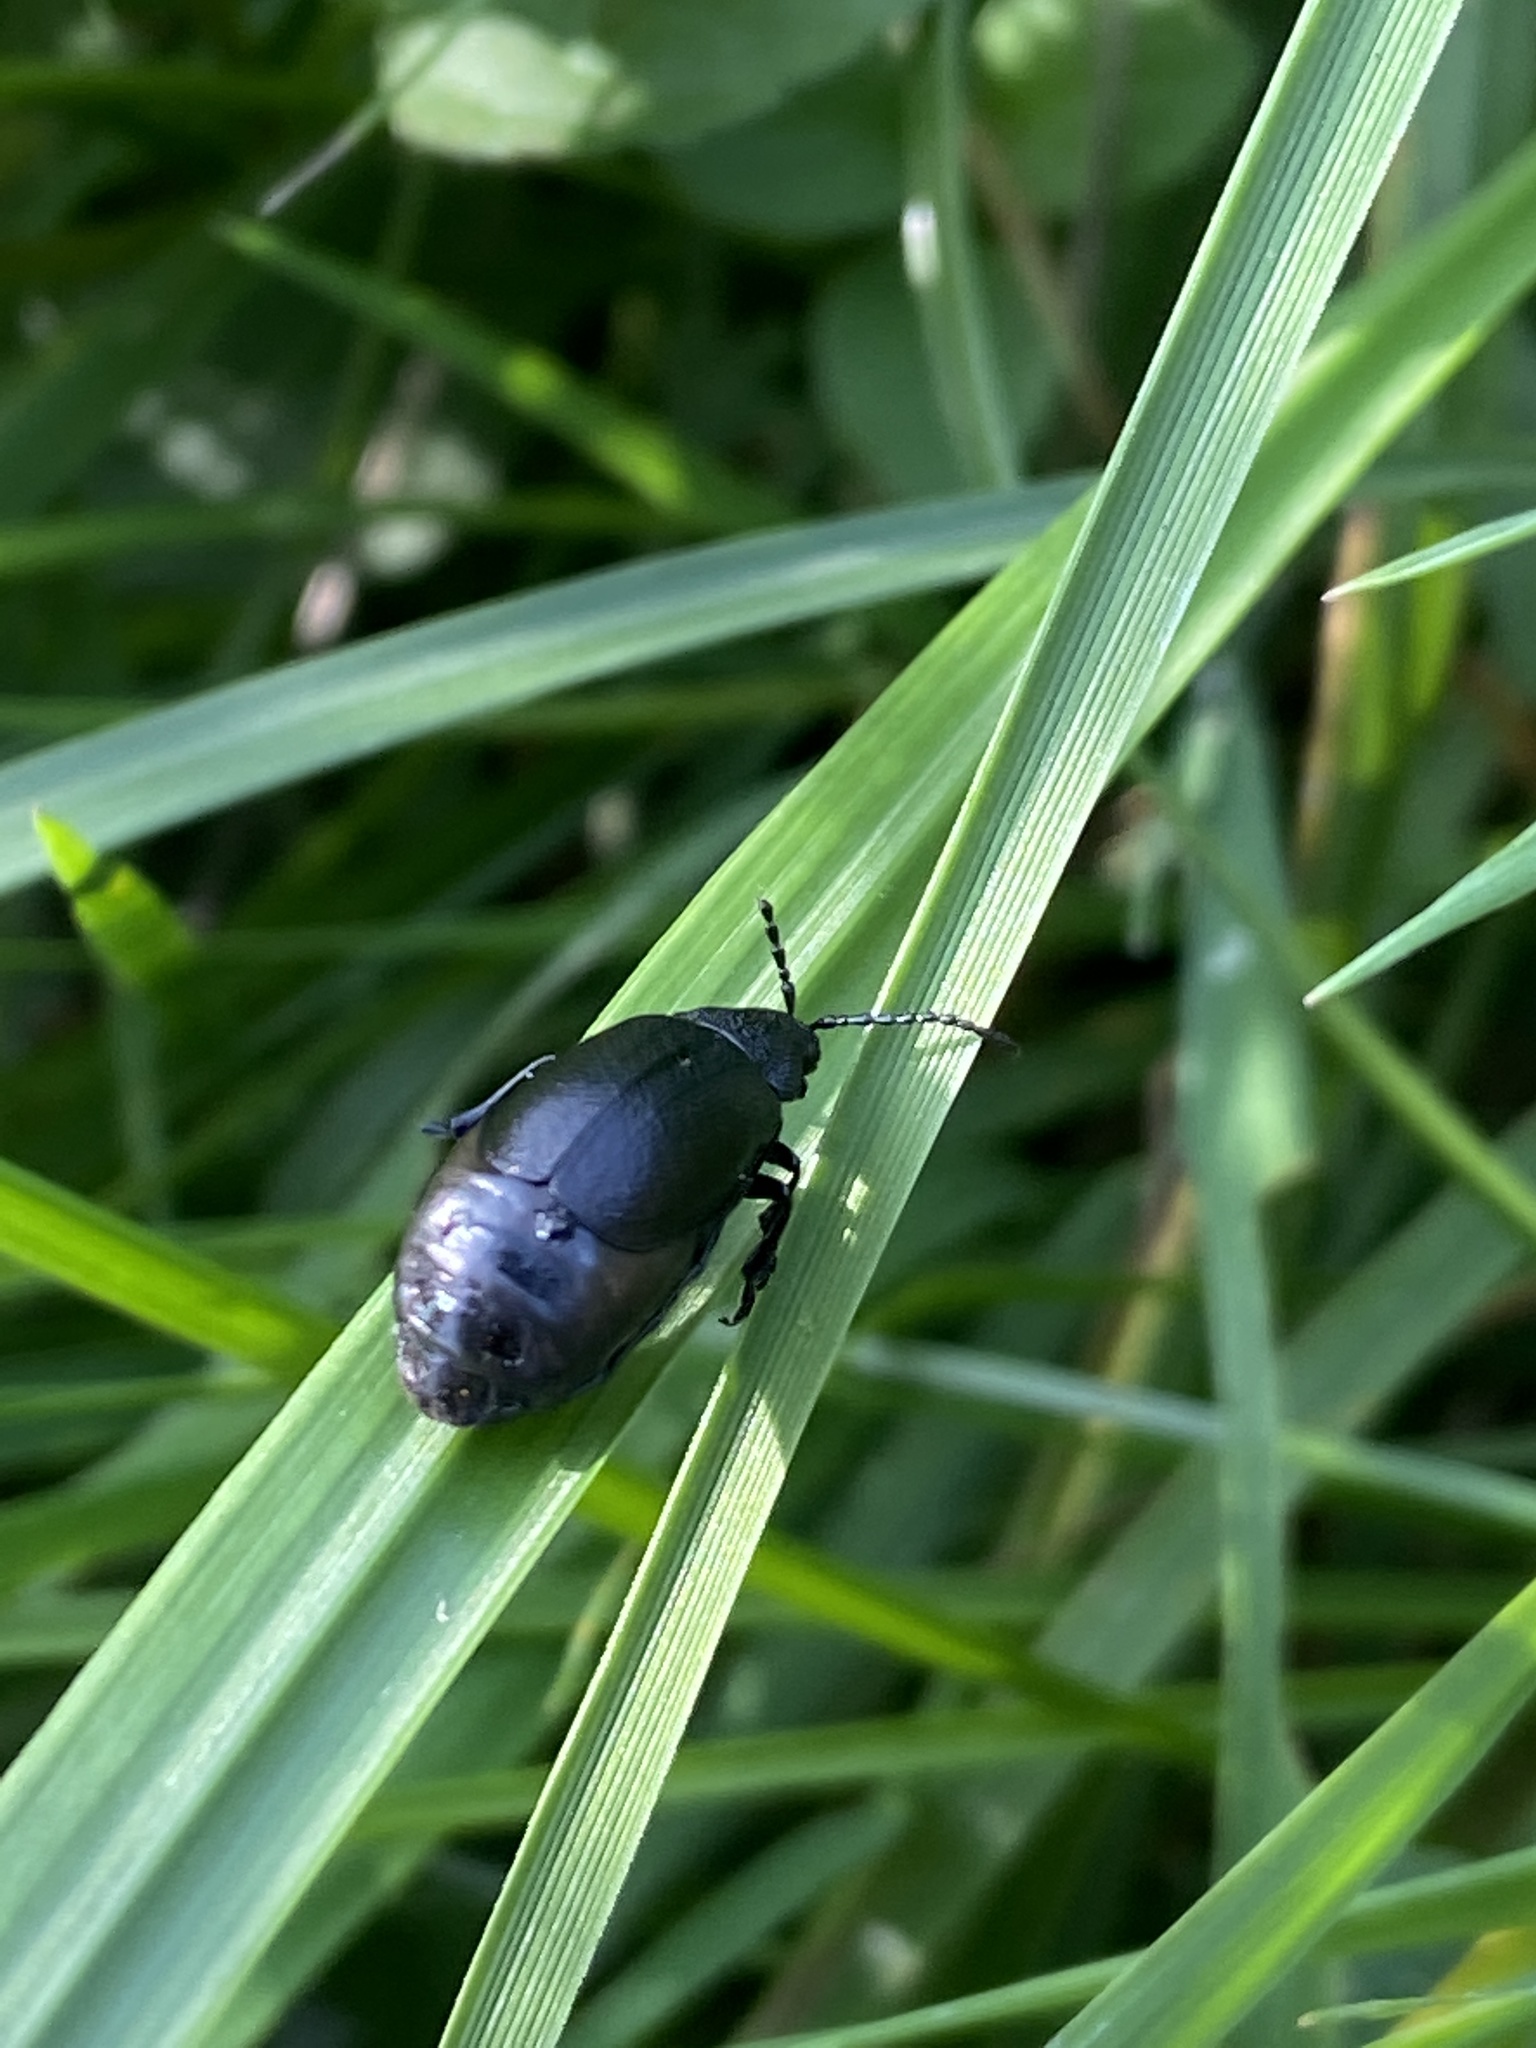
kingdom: Animalia
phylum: Arthropoda
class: Insecta
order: Coleoptera
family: Chrysomelidae
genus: Galeruca
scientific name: Galeruca tanaceti
